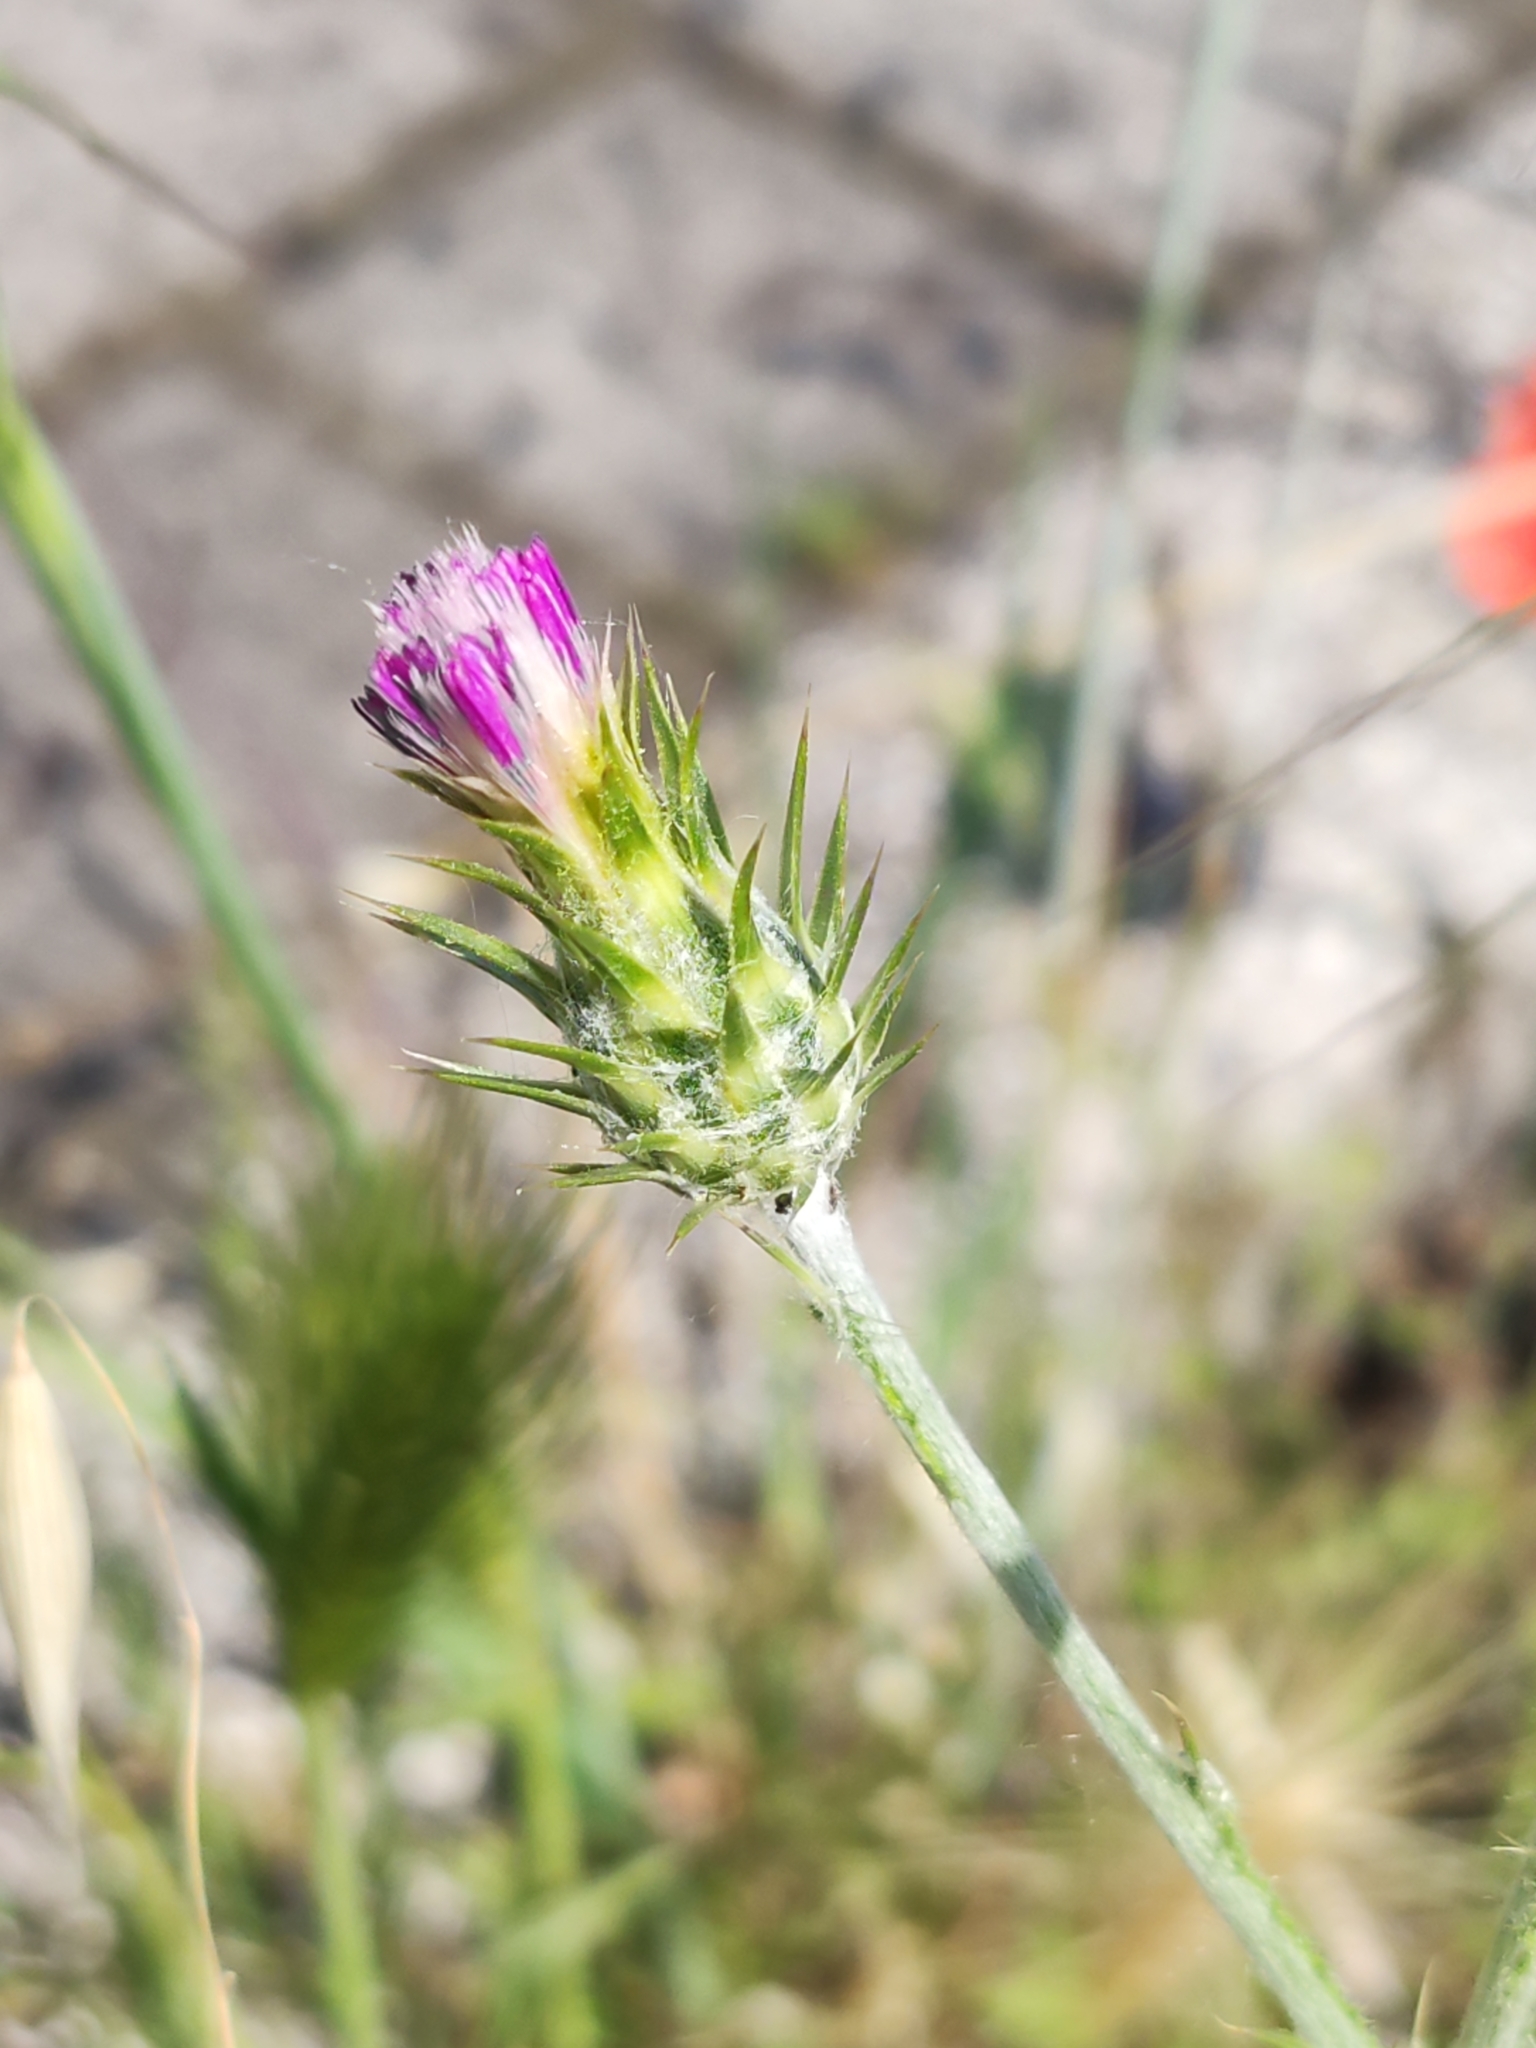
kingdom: Plantae
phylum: Tracheophyta
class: Magnoliopsida
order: Asterales
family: Asteraceae
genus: Carduus
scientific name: Carduus pycnocephalus
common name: Plymouth thistle
